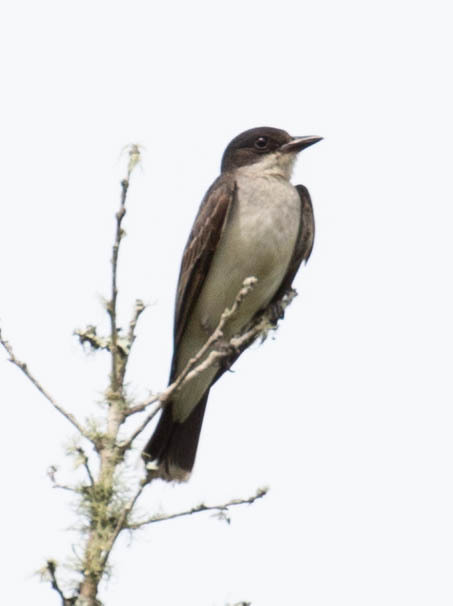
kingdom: Animalia
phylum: Chordata
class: Aves
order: Passeriformes
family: Tyrannidae
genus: Tyrannus
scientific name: Tyrannus tyrannus
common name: Eastern kingbird
